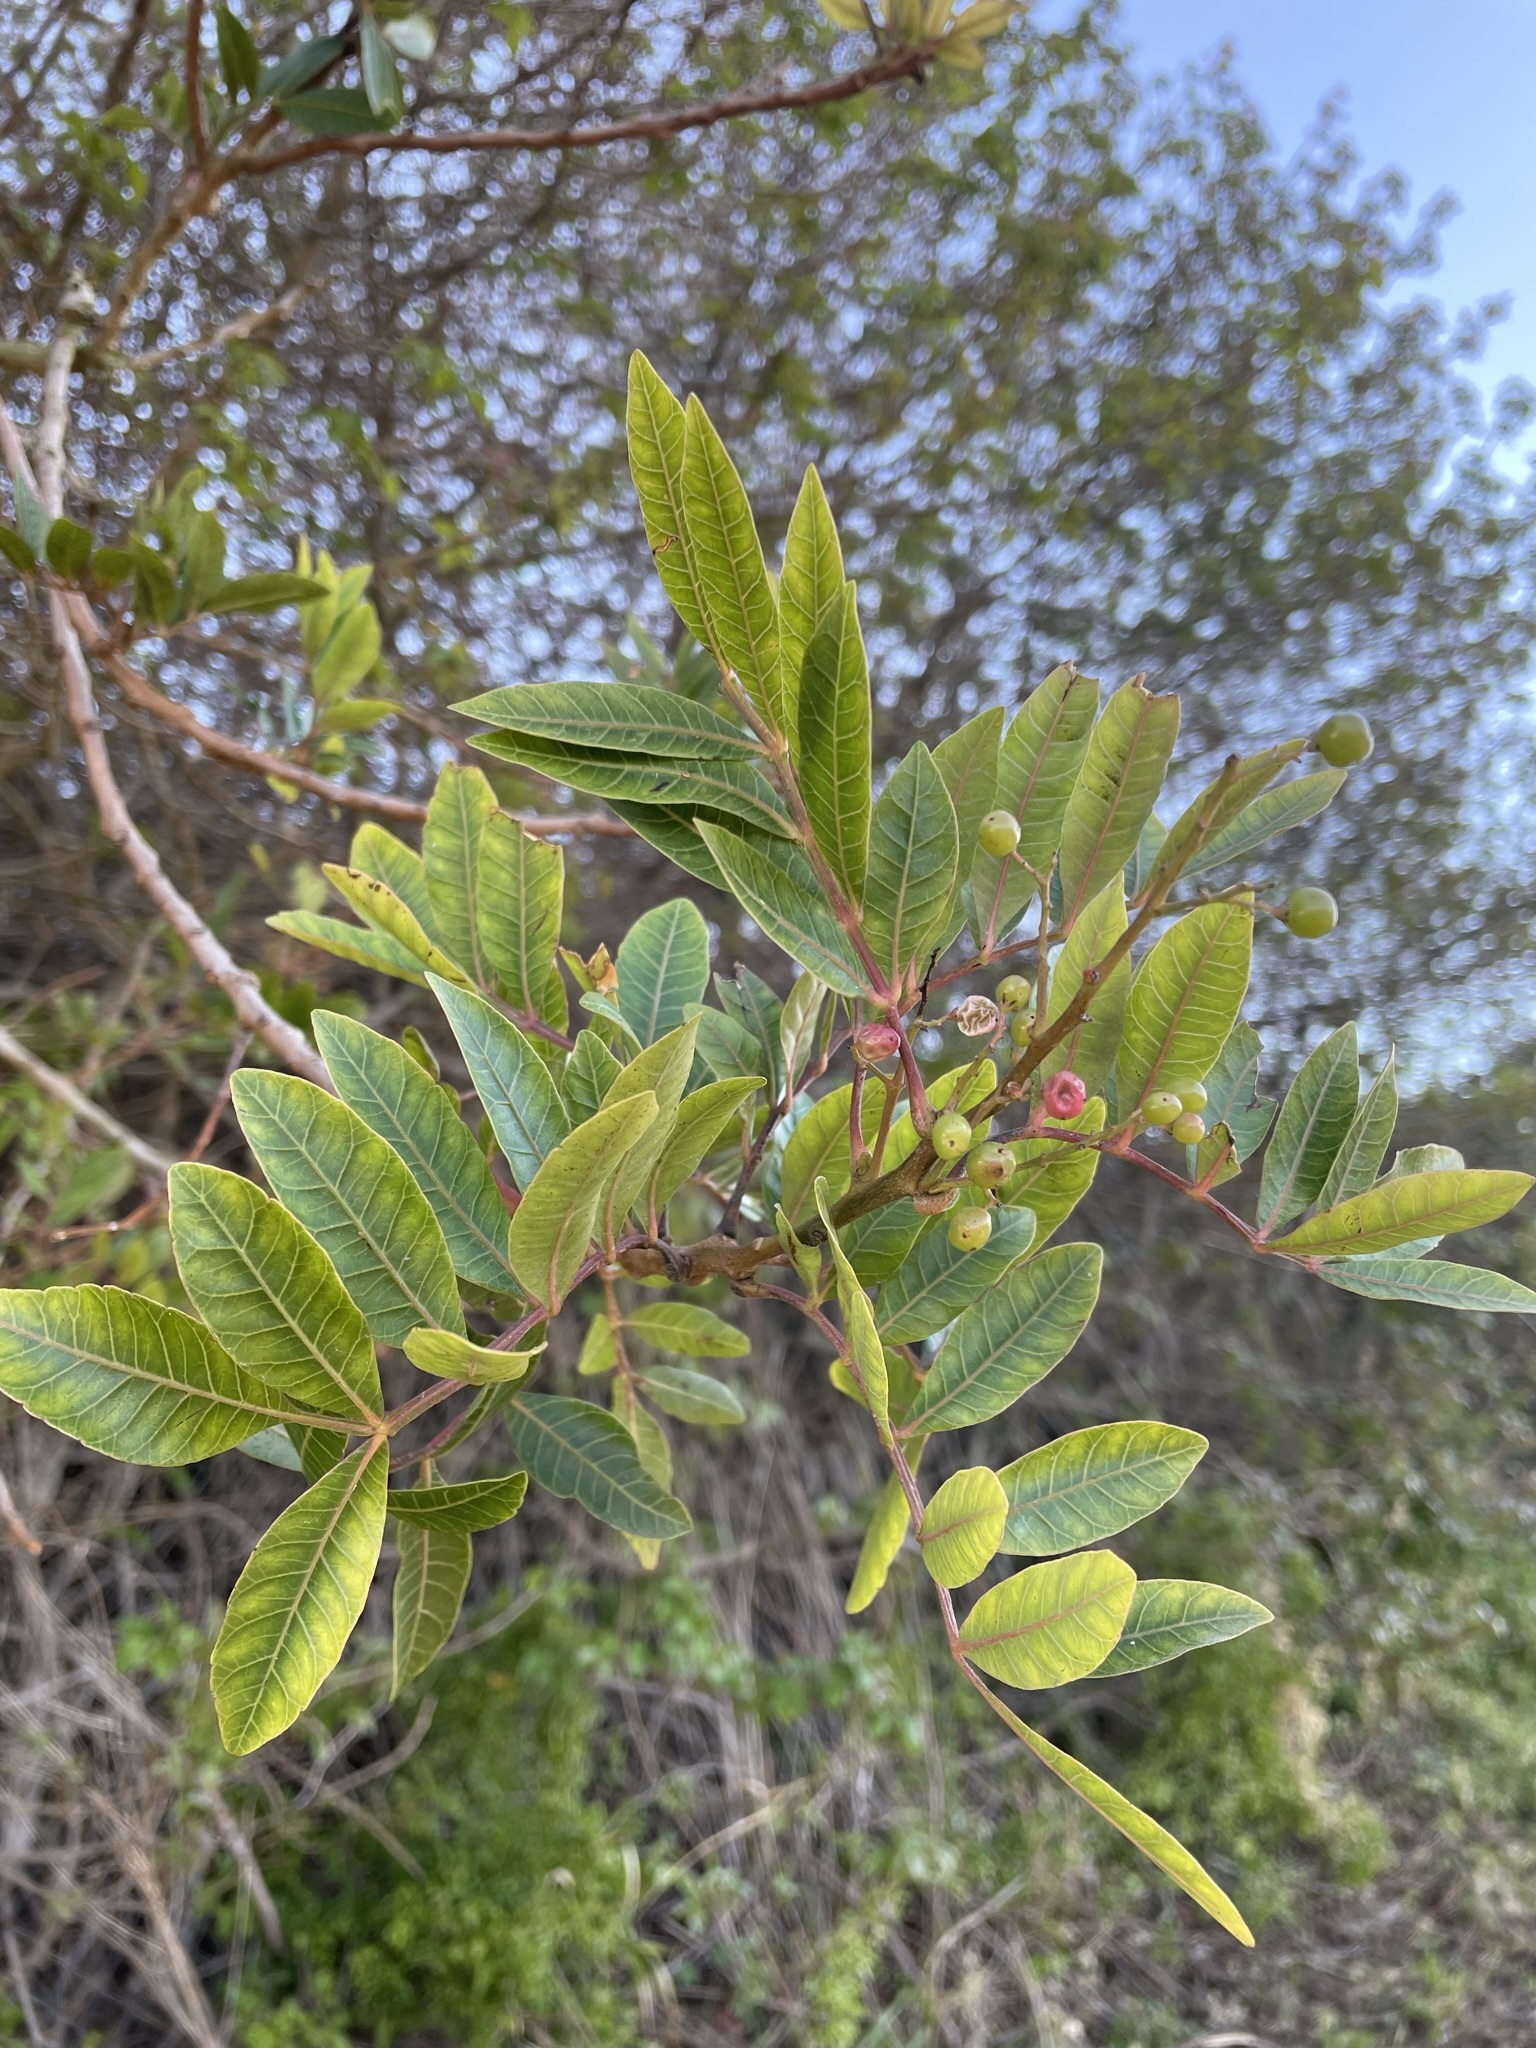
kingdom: Plantae
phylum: Tracheophyta
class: Magnoliopsida
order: Sapindales
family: Anacardiaceae
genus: Schinus
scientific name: Schinus terebinthifolia
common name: Brazilian peppertree
